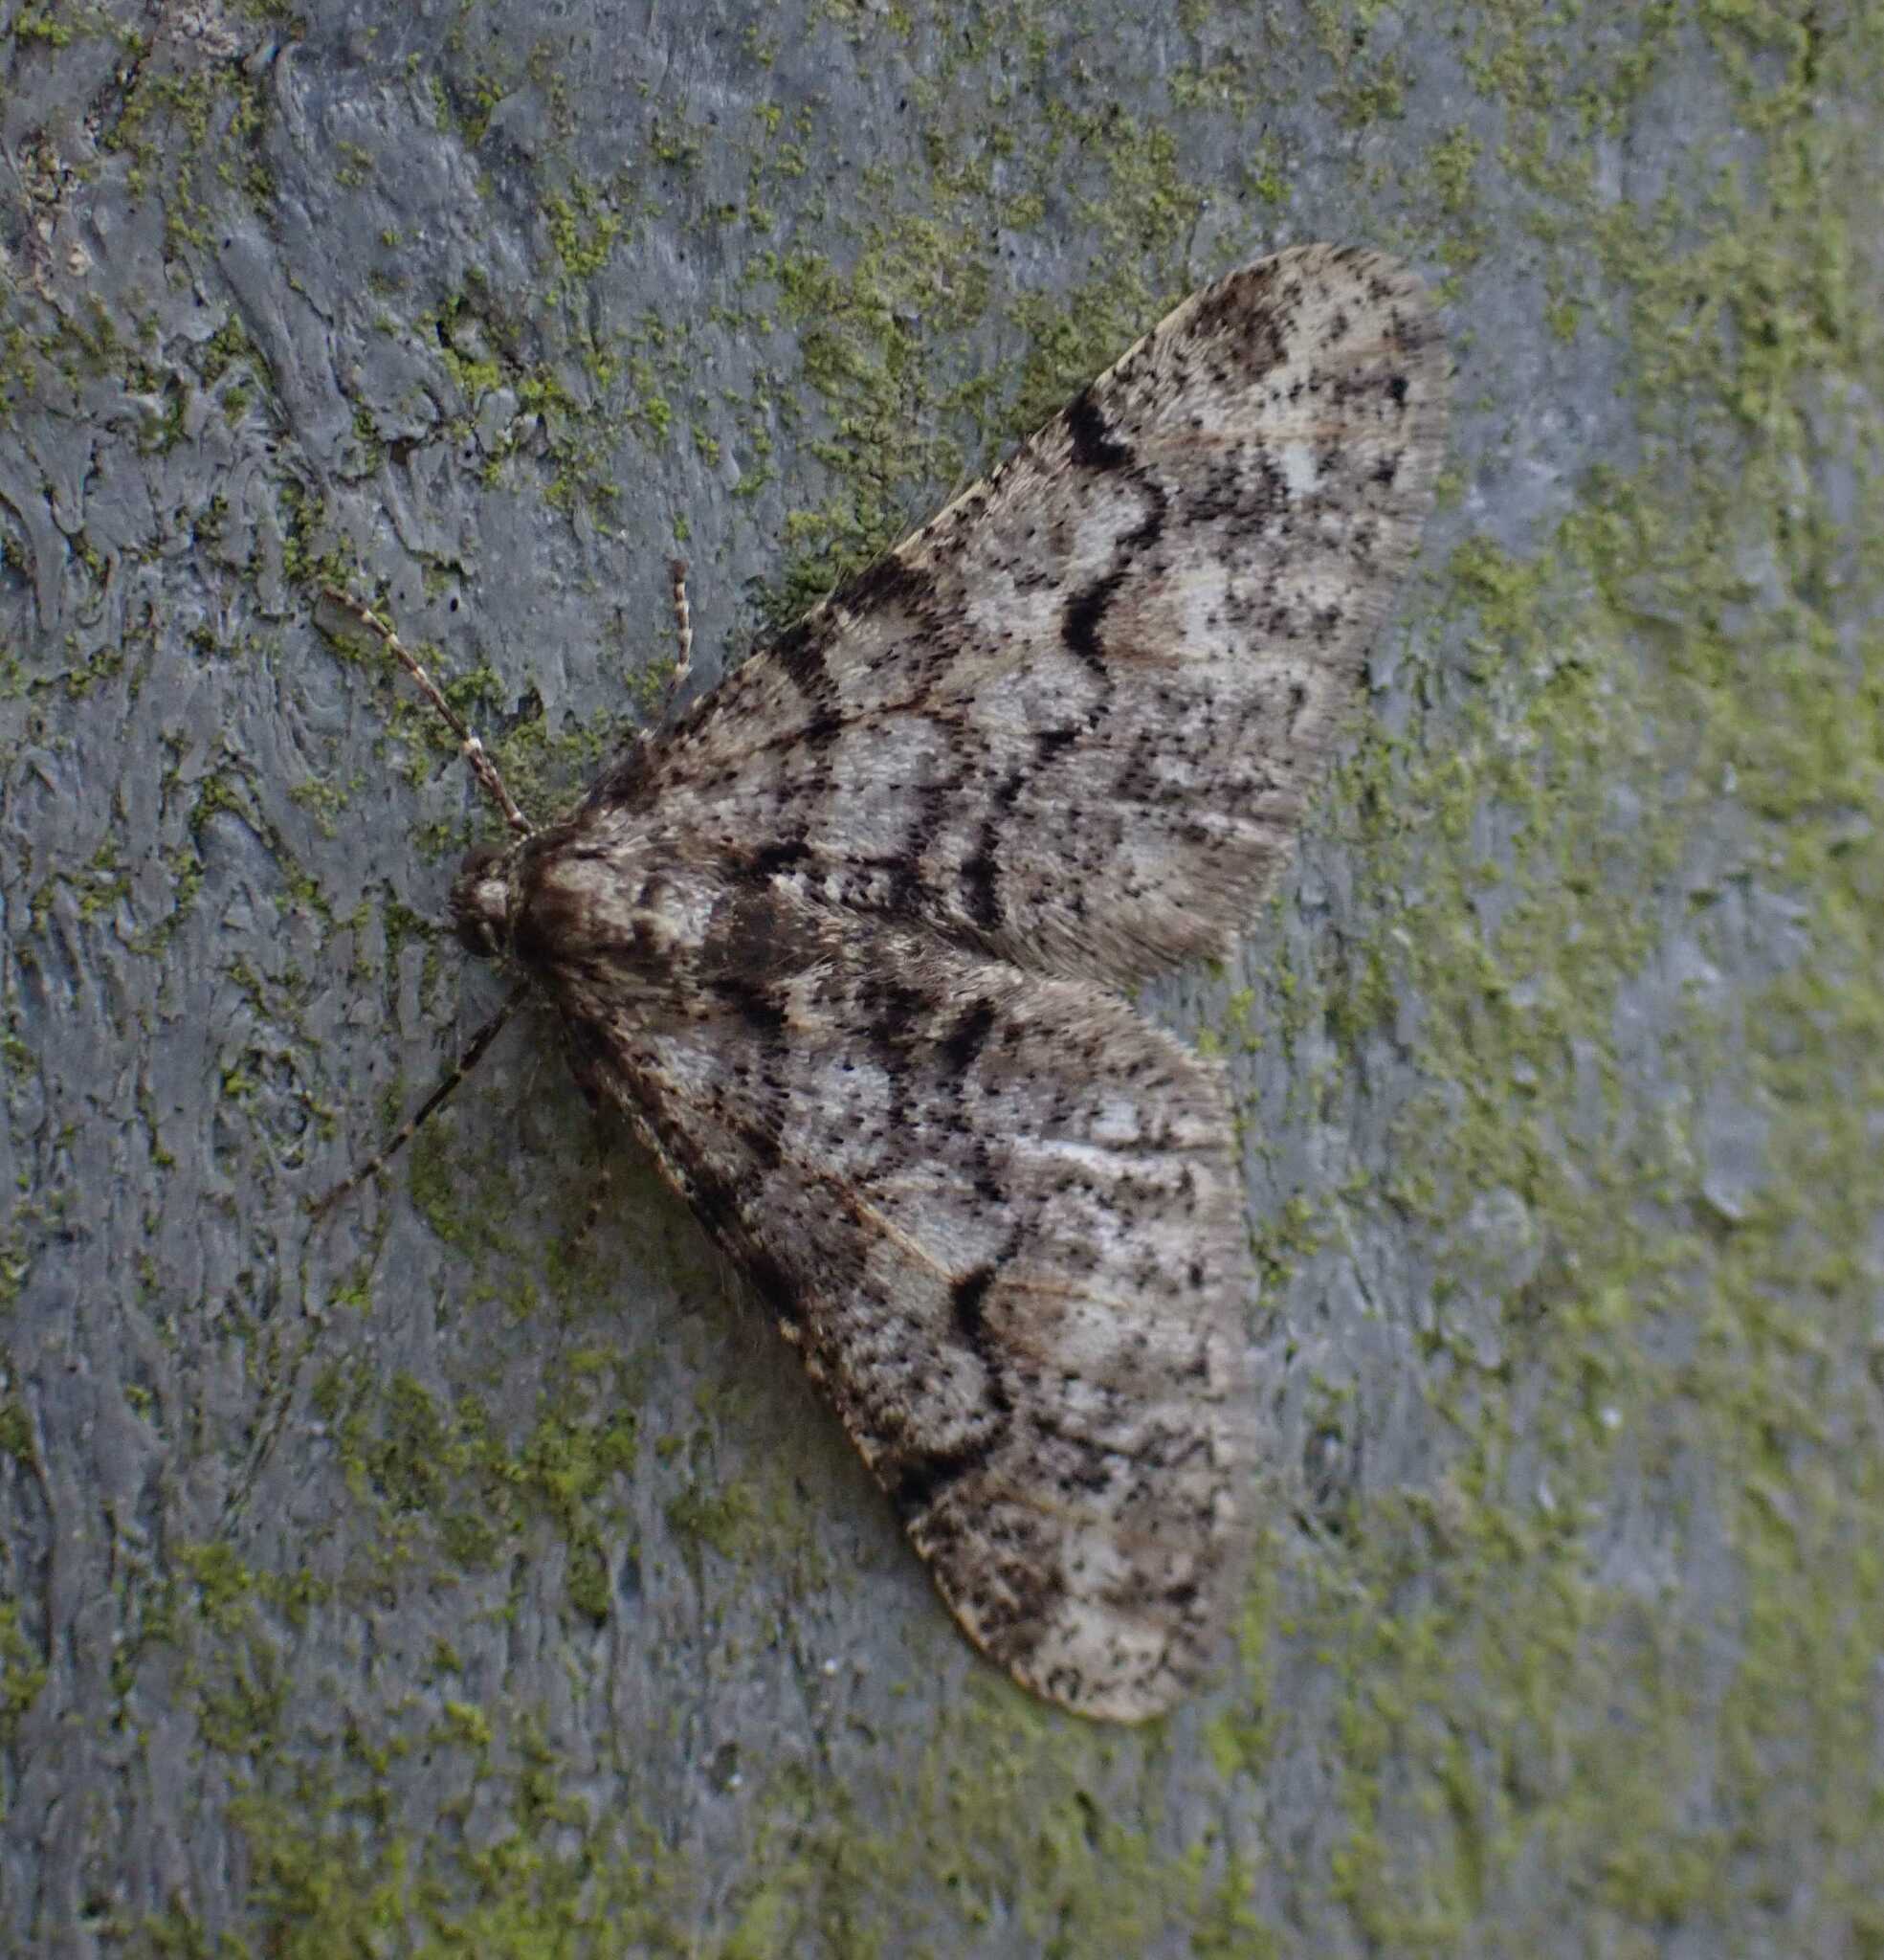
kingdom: Animalia
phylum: Arthropoda
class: Insecta
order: Lepidoptera
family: Geometridae
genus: Agriopis
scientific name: Agriopis leucophaearia
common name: Spring usher
